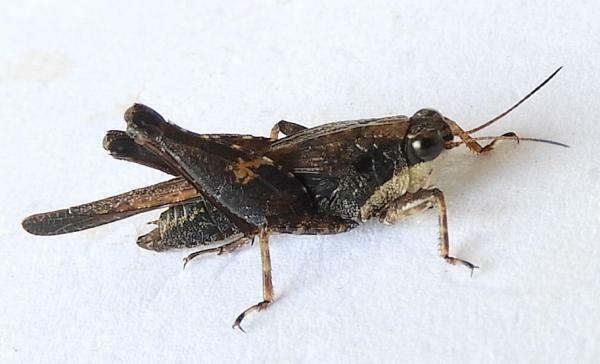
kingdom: Animalia
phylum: Arthropoda
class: Insecta
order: Orthoptera
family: Tetrigidae
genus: Tettigidea
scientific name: Tettigidea laterale
